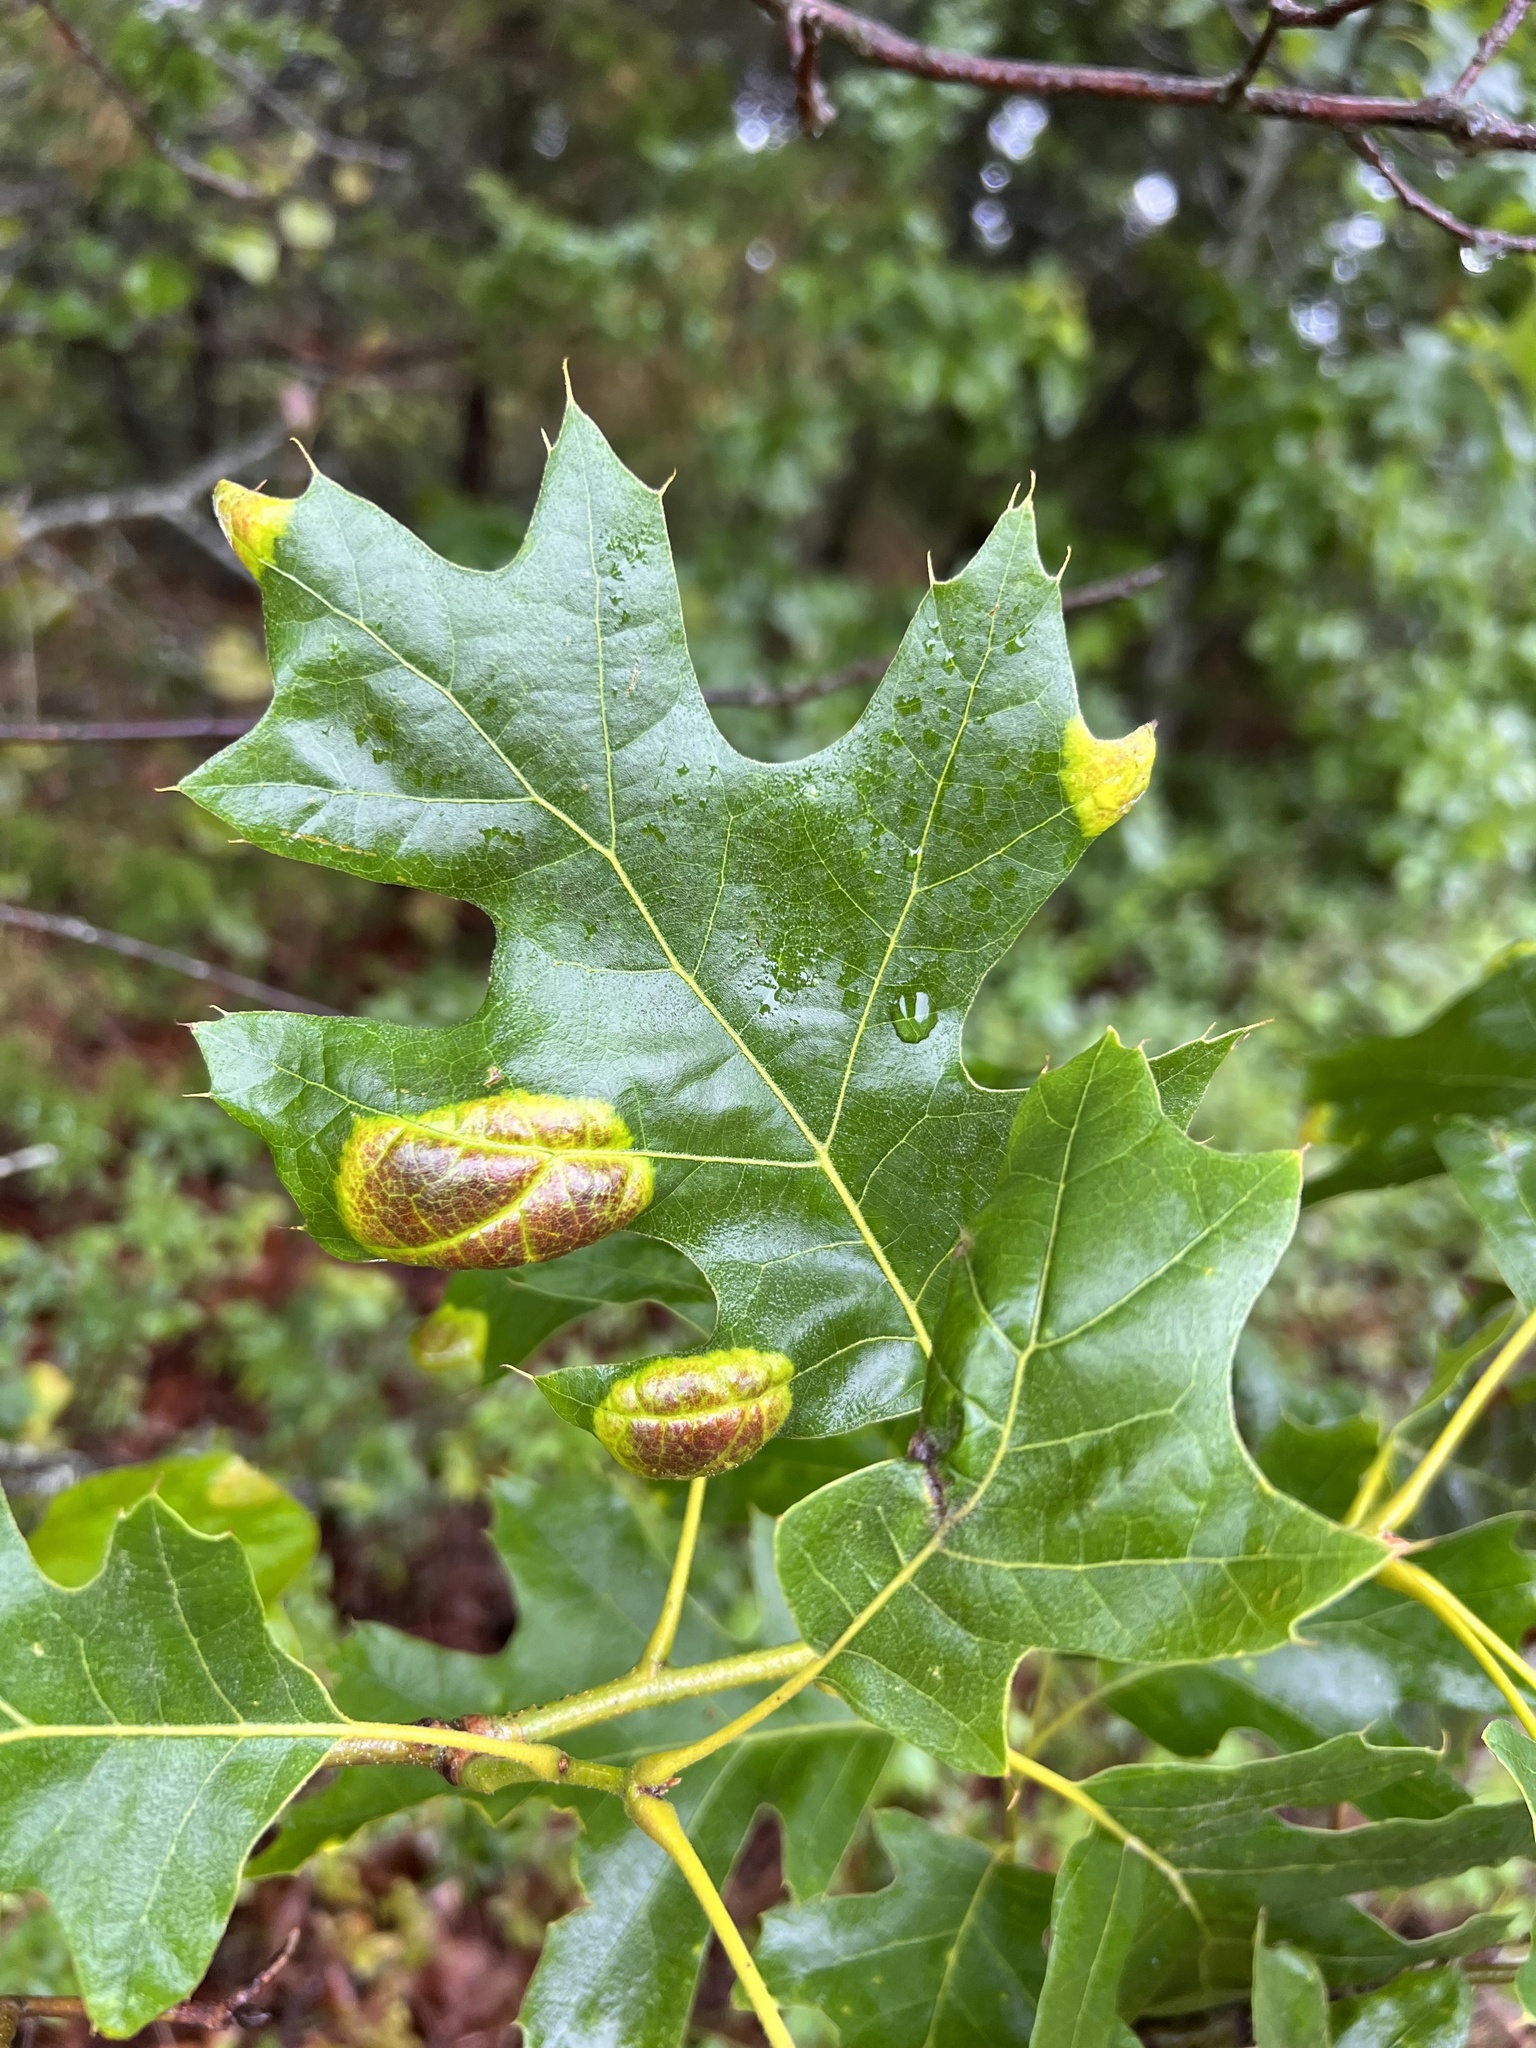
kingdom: Fungi
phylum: Ascomycota
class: Taphrinomycetes
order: Taphrinales
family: Taphrinaceae
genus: Taphrina
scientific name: Taphrina caerulescens
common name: Oak leaf blister
